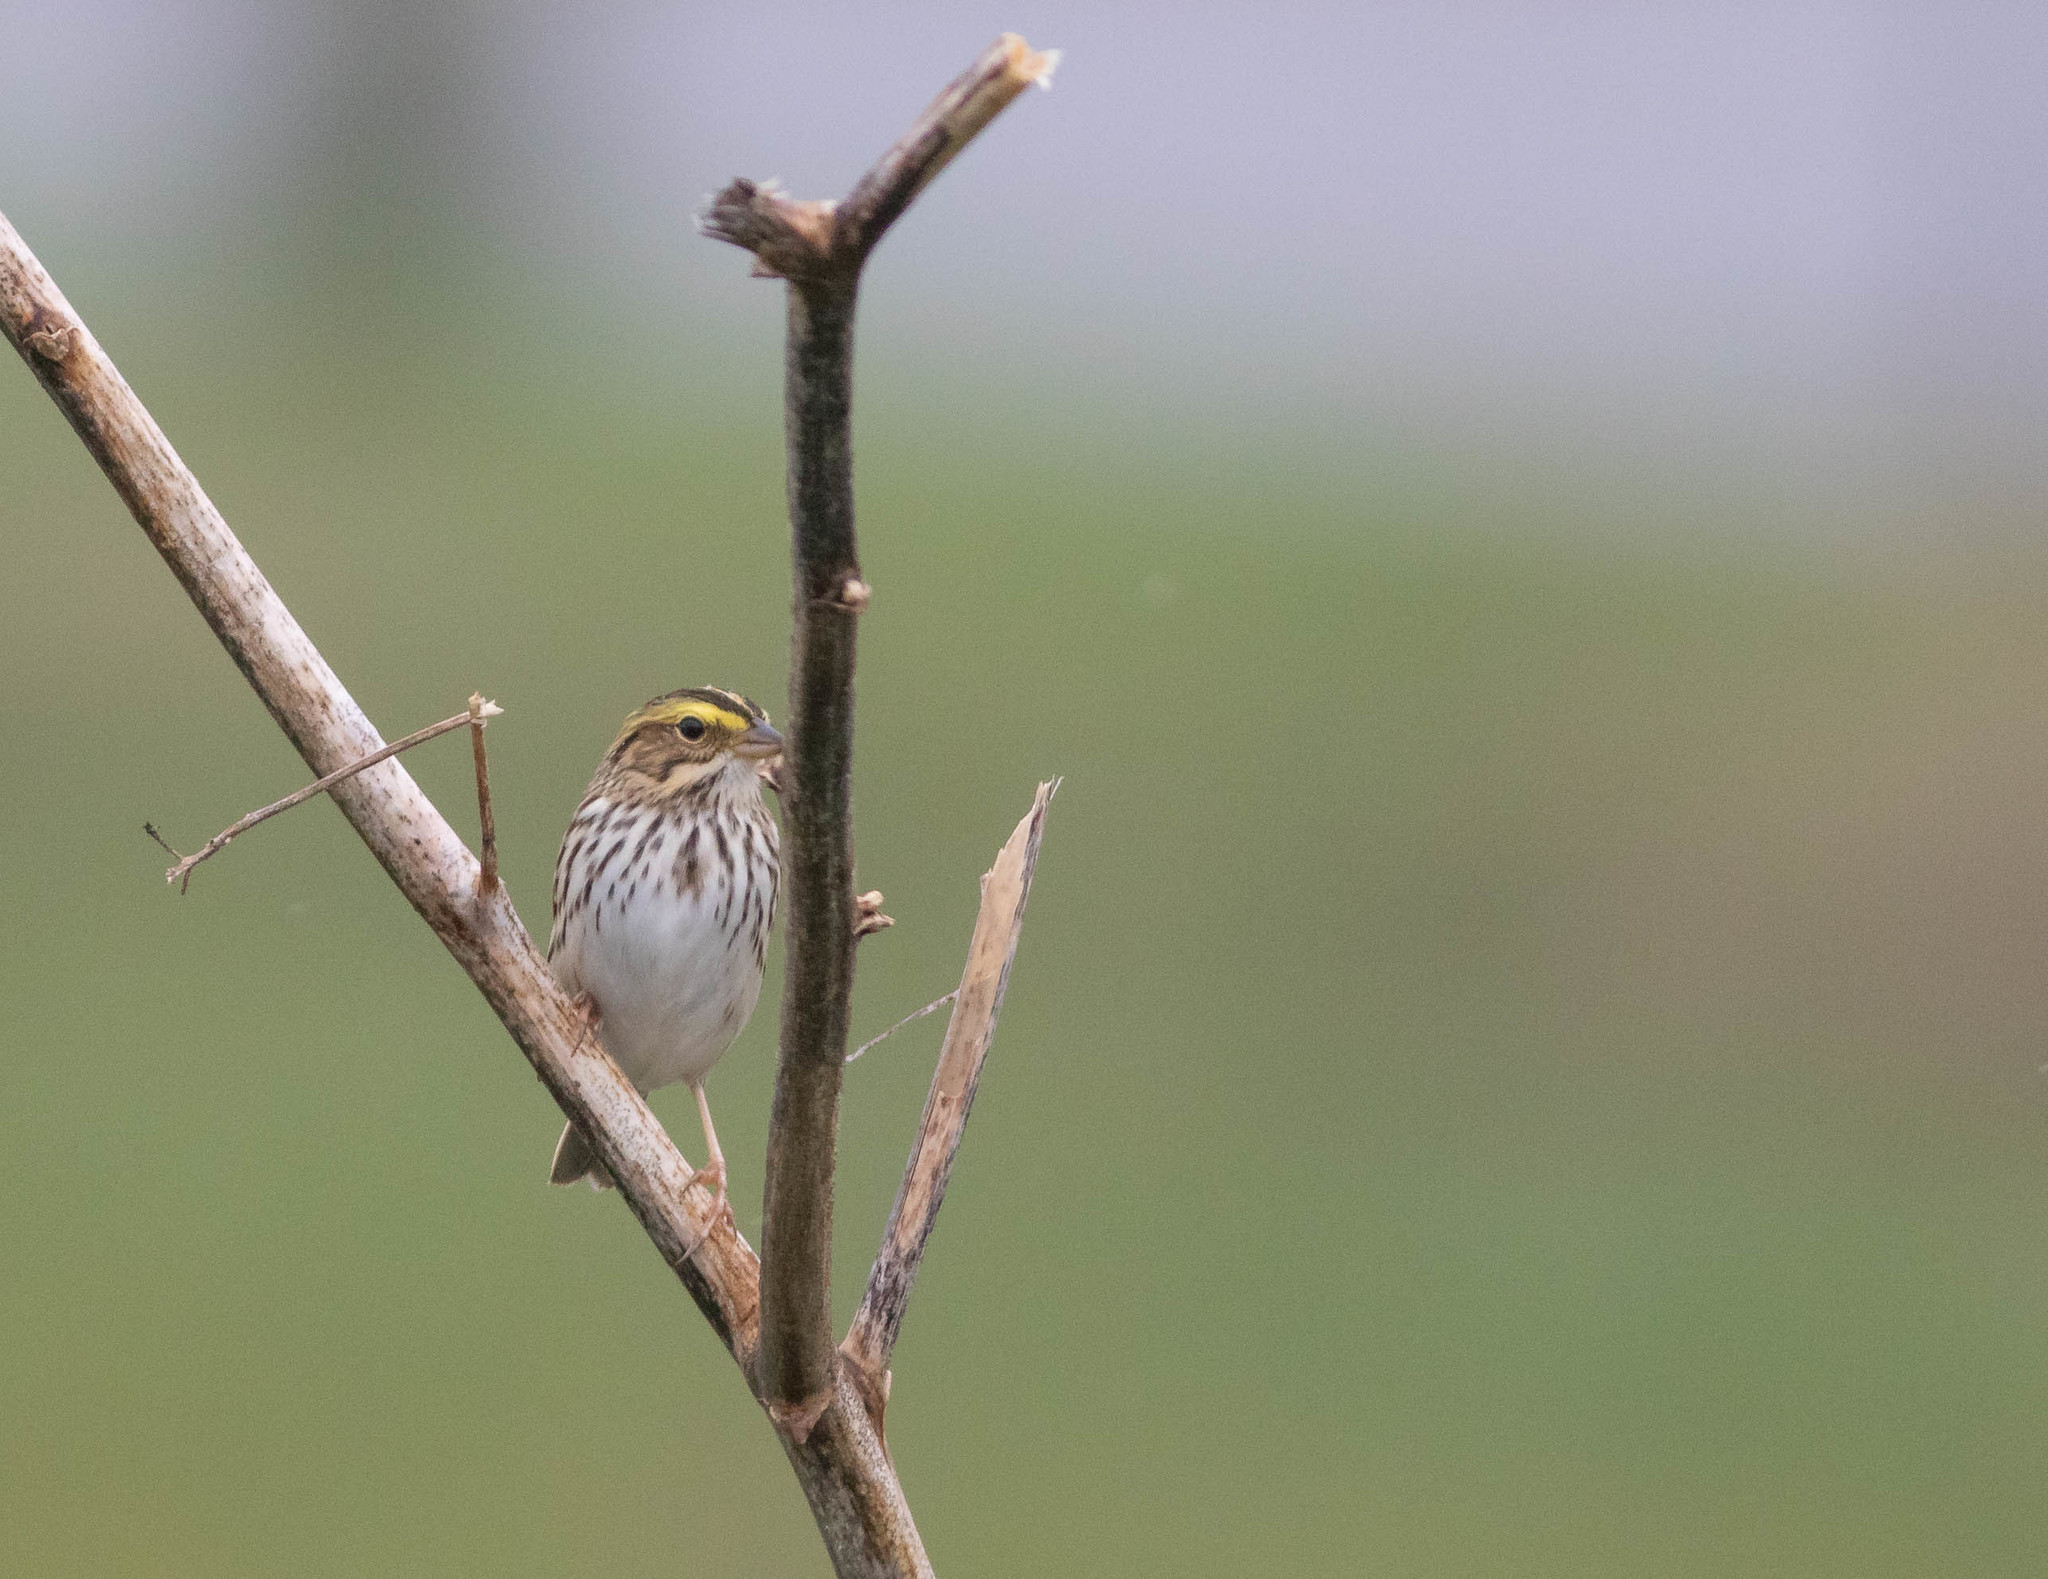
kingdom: Animalia
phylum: Chordata
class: Aves
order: Passeriformes
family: Passerellidae
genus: Passerculus
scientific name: Passerculus sandwichensis
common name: Savannah sparrow
